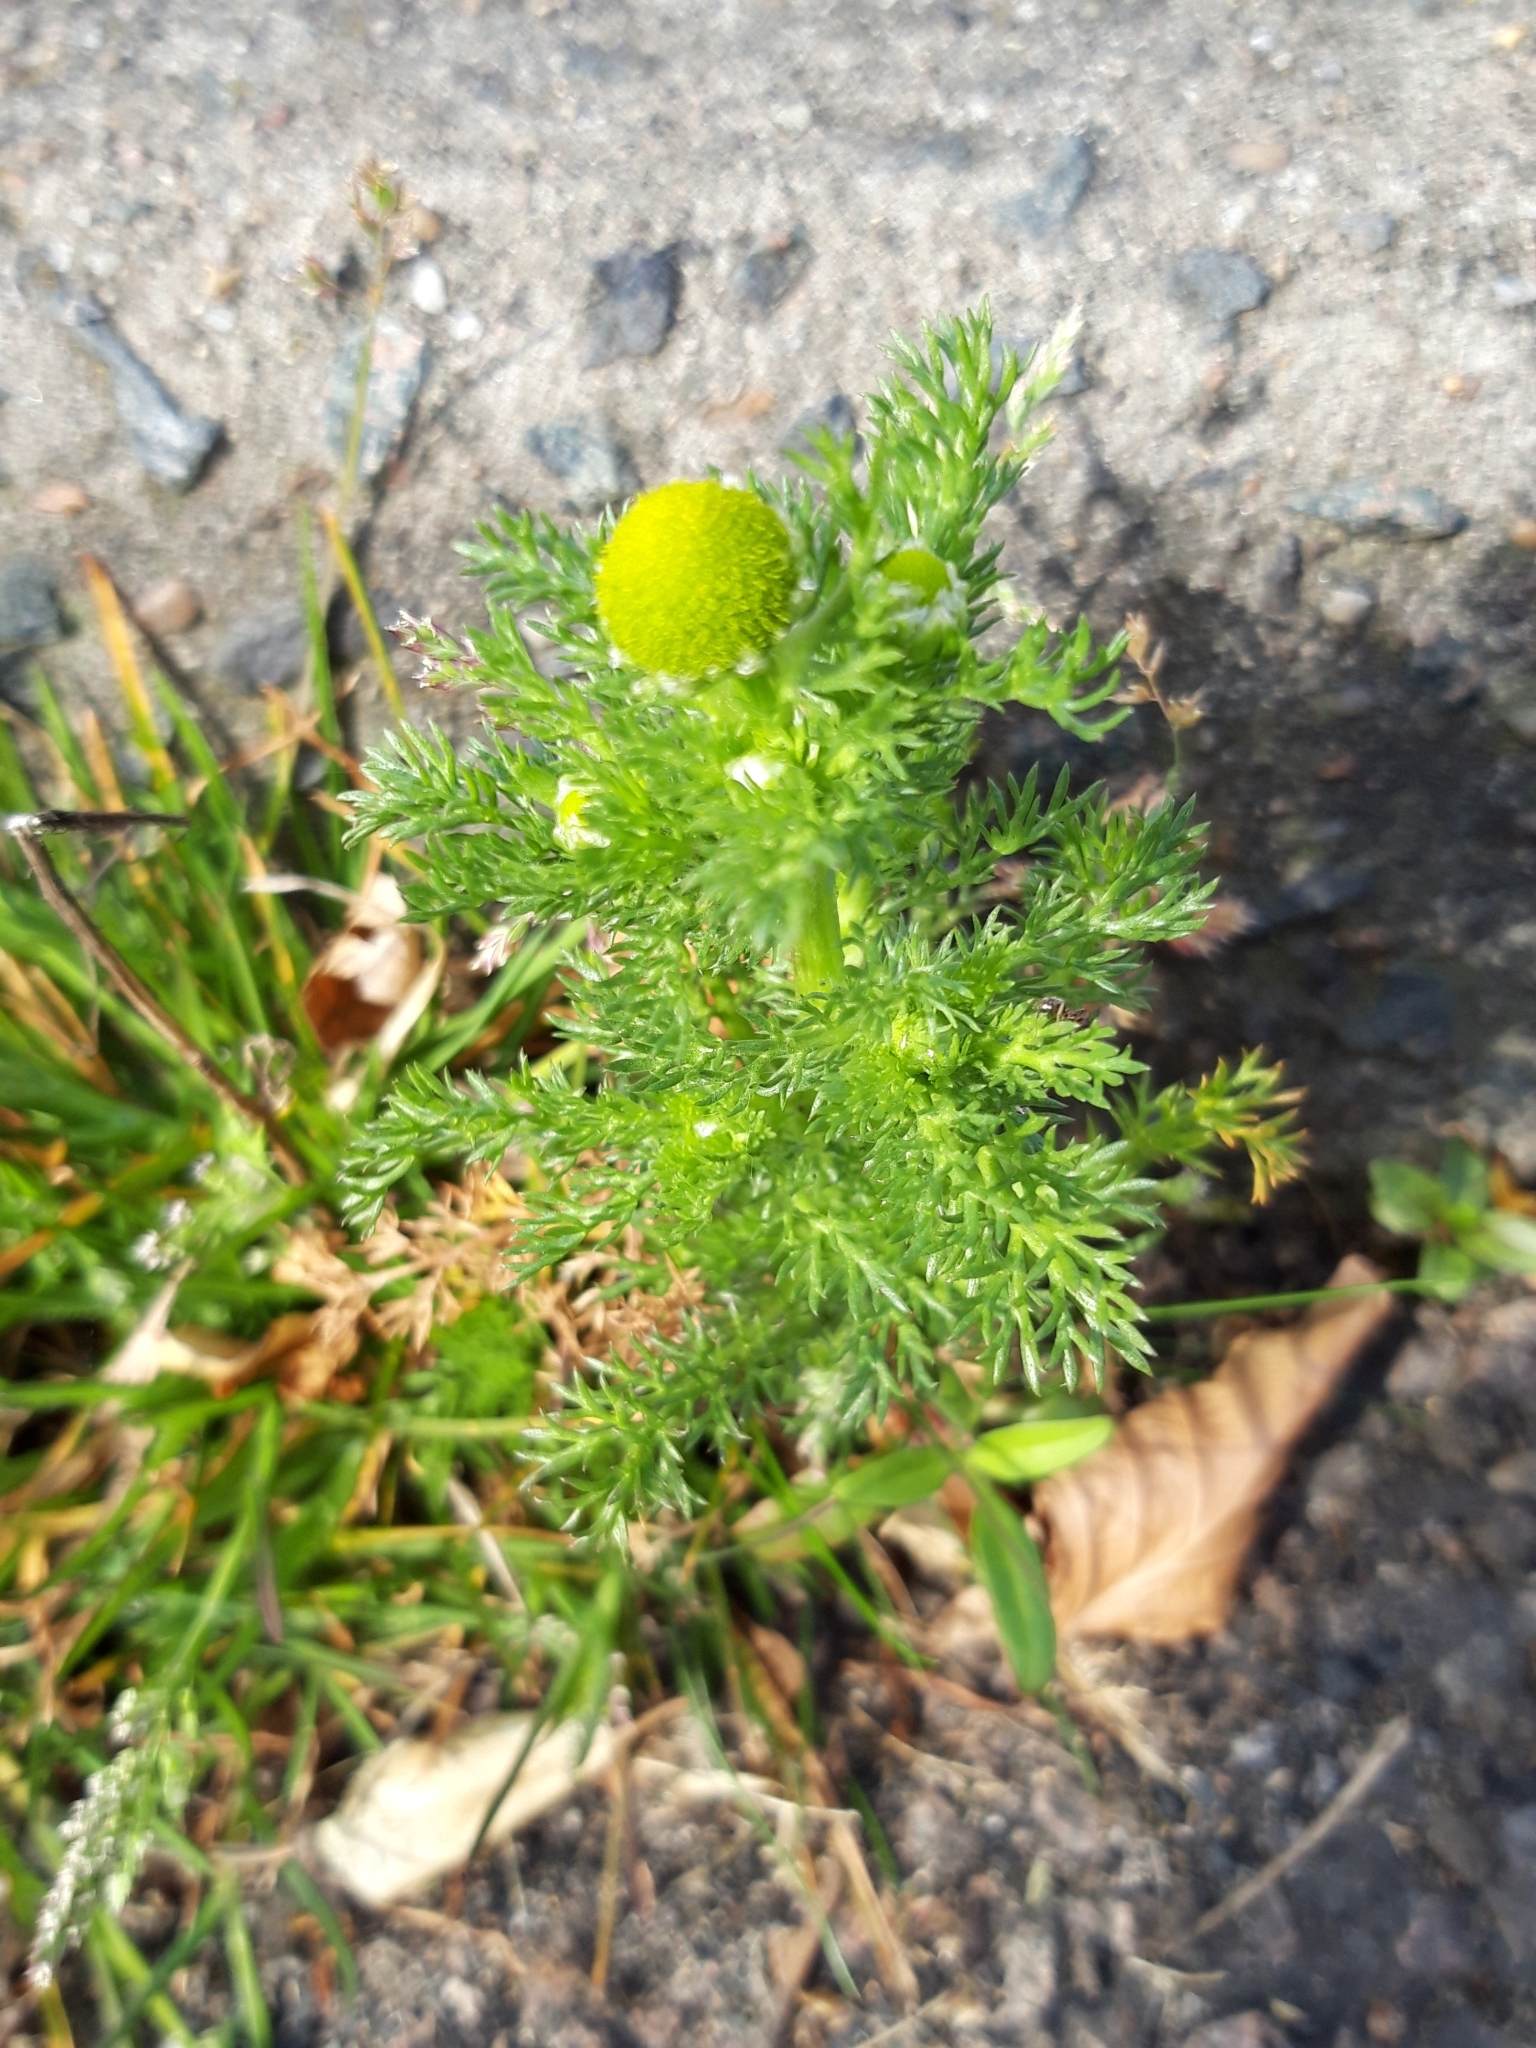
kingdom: Plantae
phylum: Tracheophyta
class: Magnoliopsida
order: Asterales
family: Asteraceae
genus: Matricaria
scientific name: Matricaria discoidea
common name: Disc mayweed
